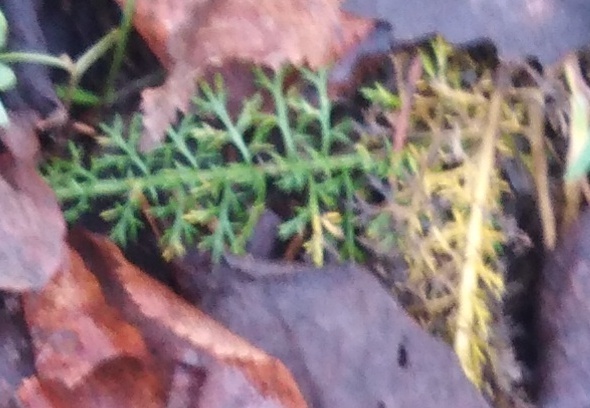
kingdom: Plantae
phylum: Tracheophyta
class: Magnoliopsida
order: Asterales
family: Asteraceae
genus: Achillea
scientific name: Achillea nobilis
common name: Noble yarrow
